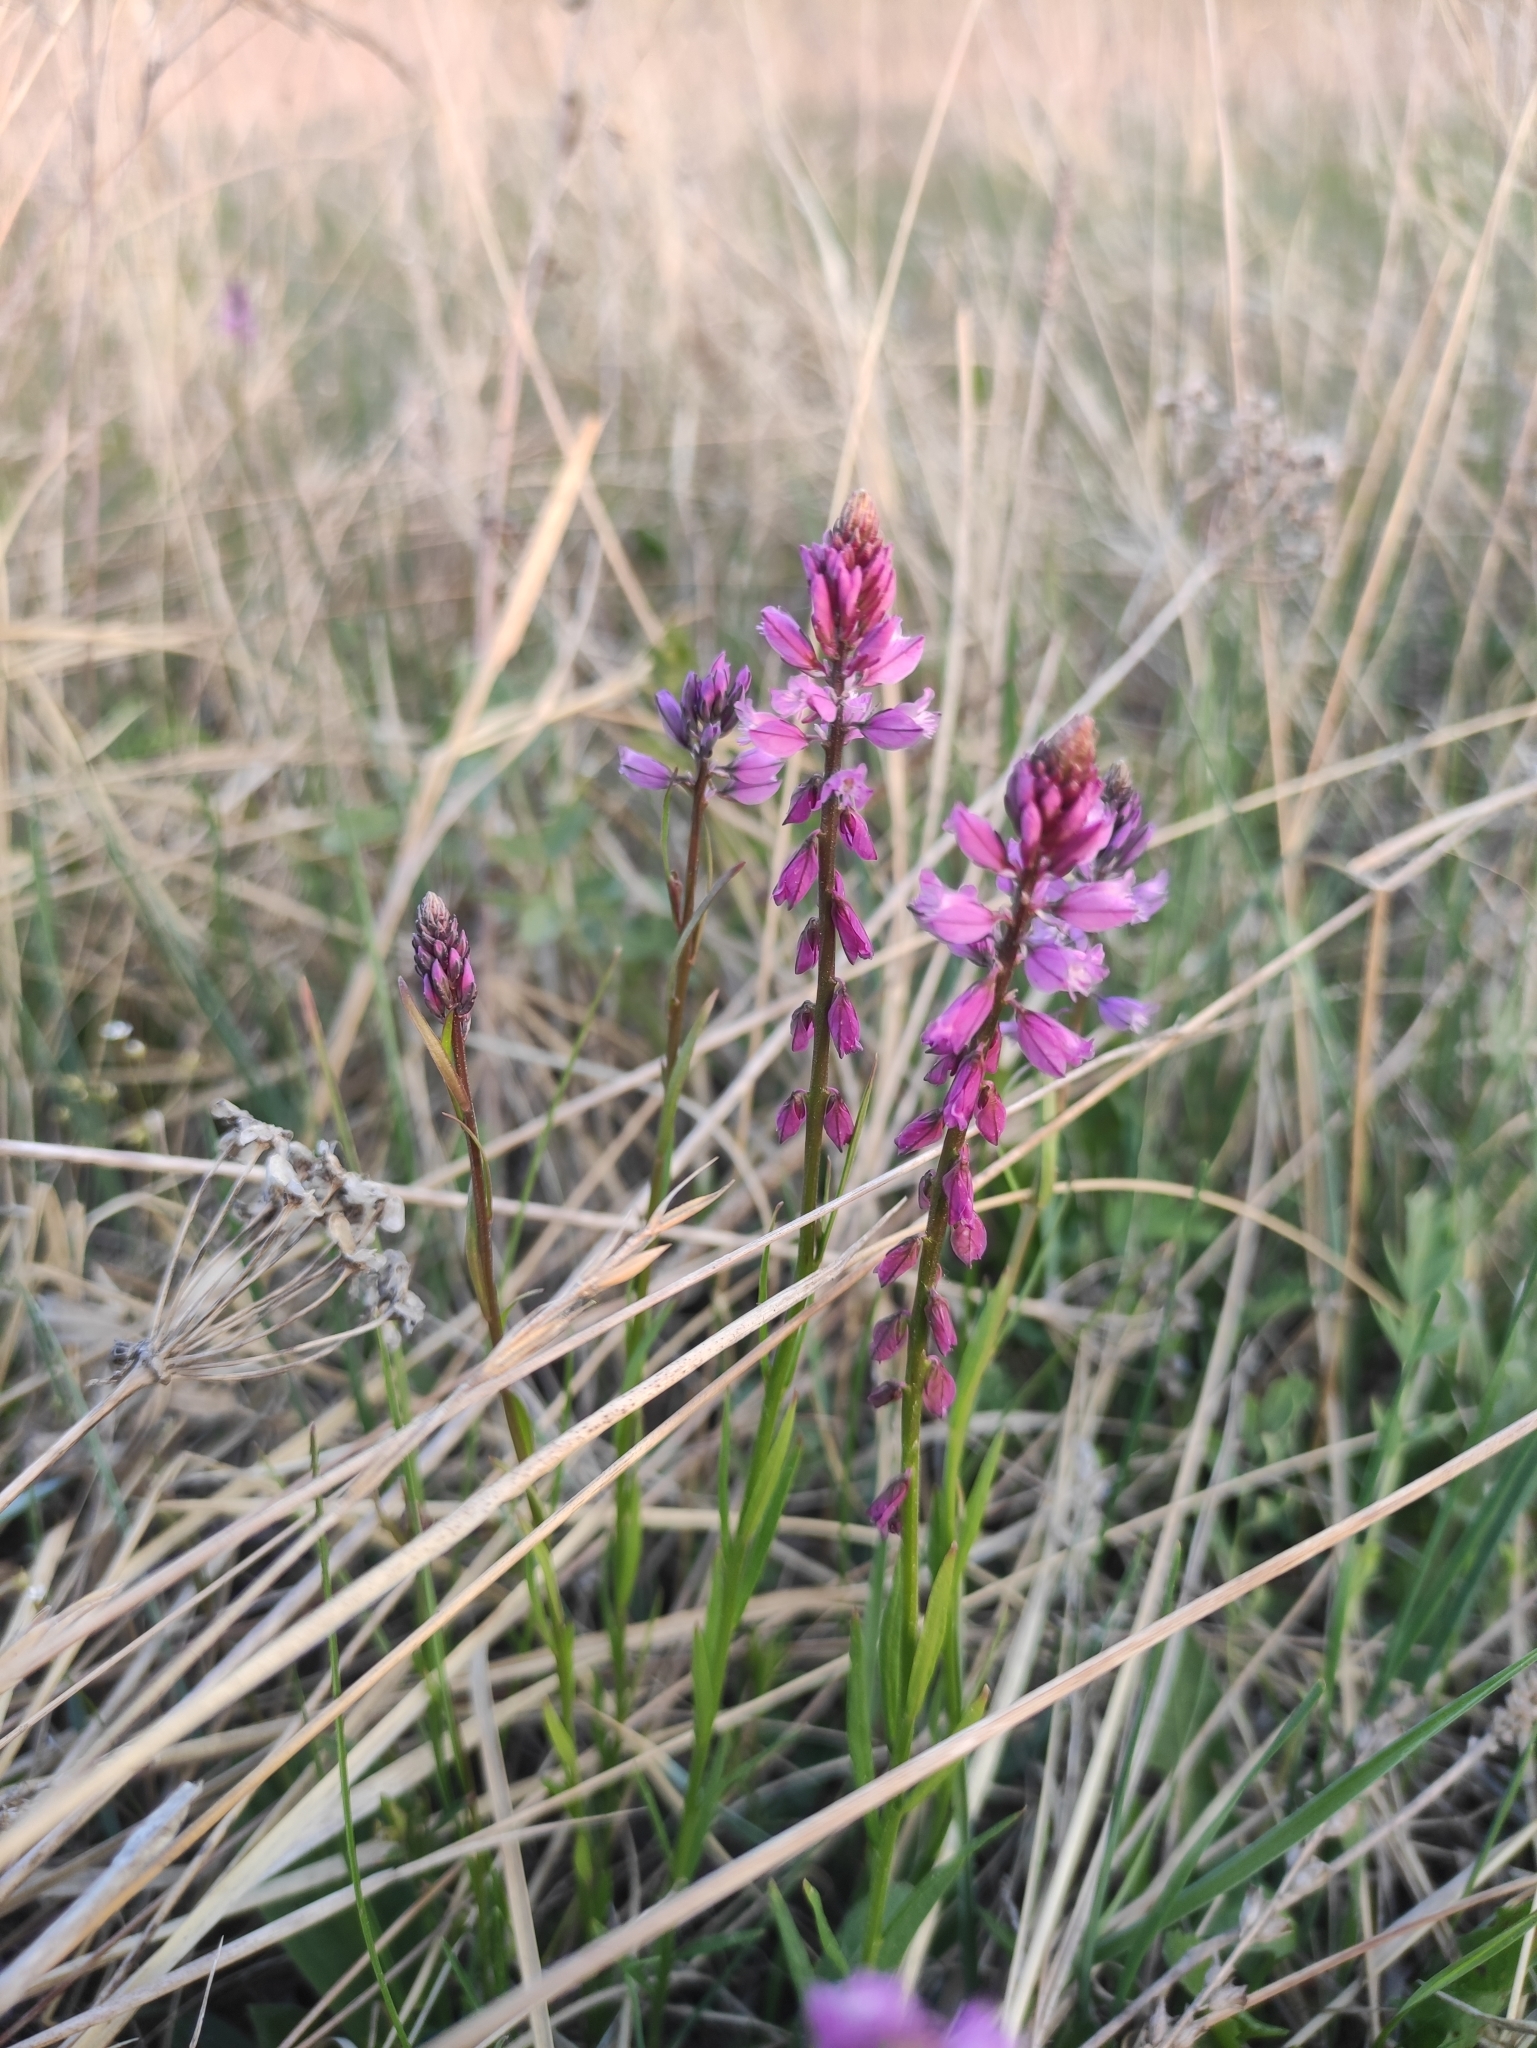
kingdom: Plantae
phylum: Tracheophyta
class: Magnoliopsida
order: Fabales
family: Polygalaceae
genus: Polygala
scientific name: Polygala comosa
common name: Tufted milkwort
